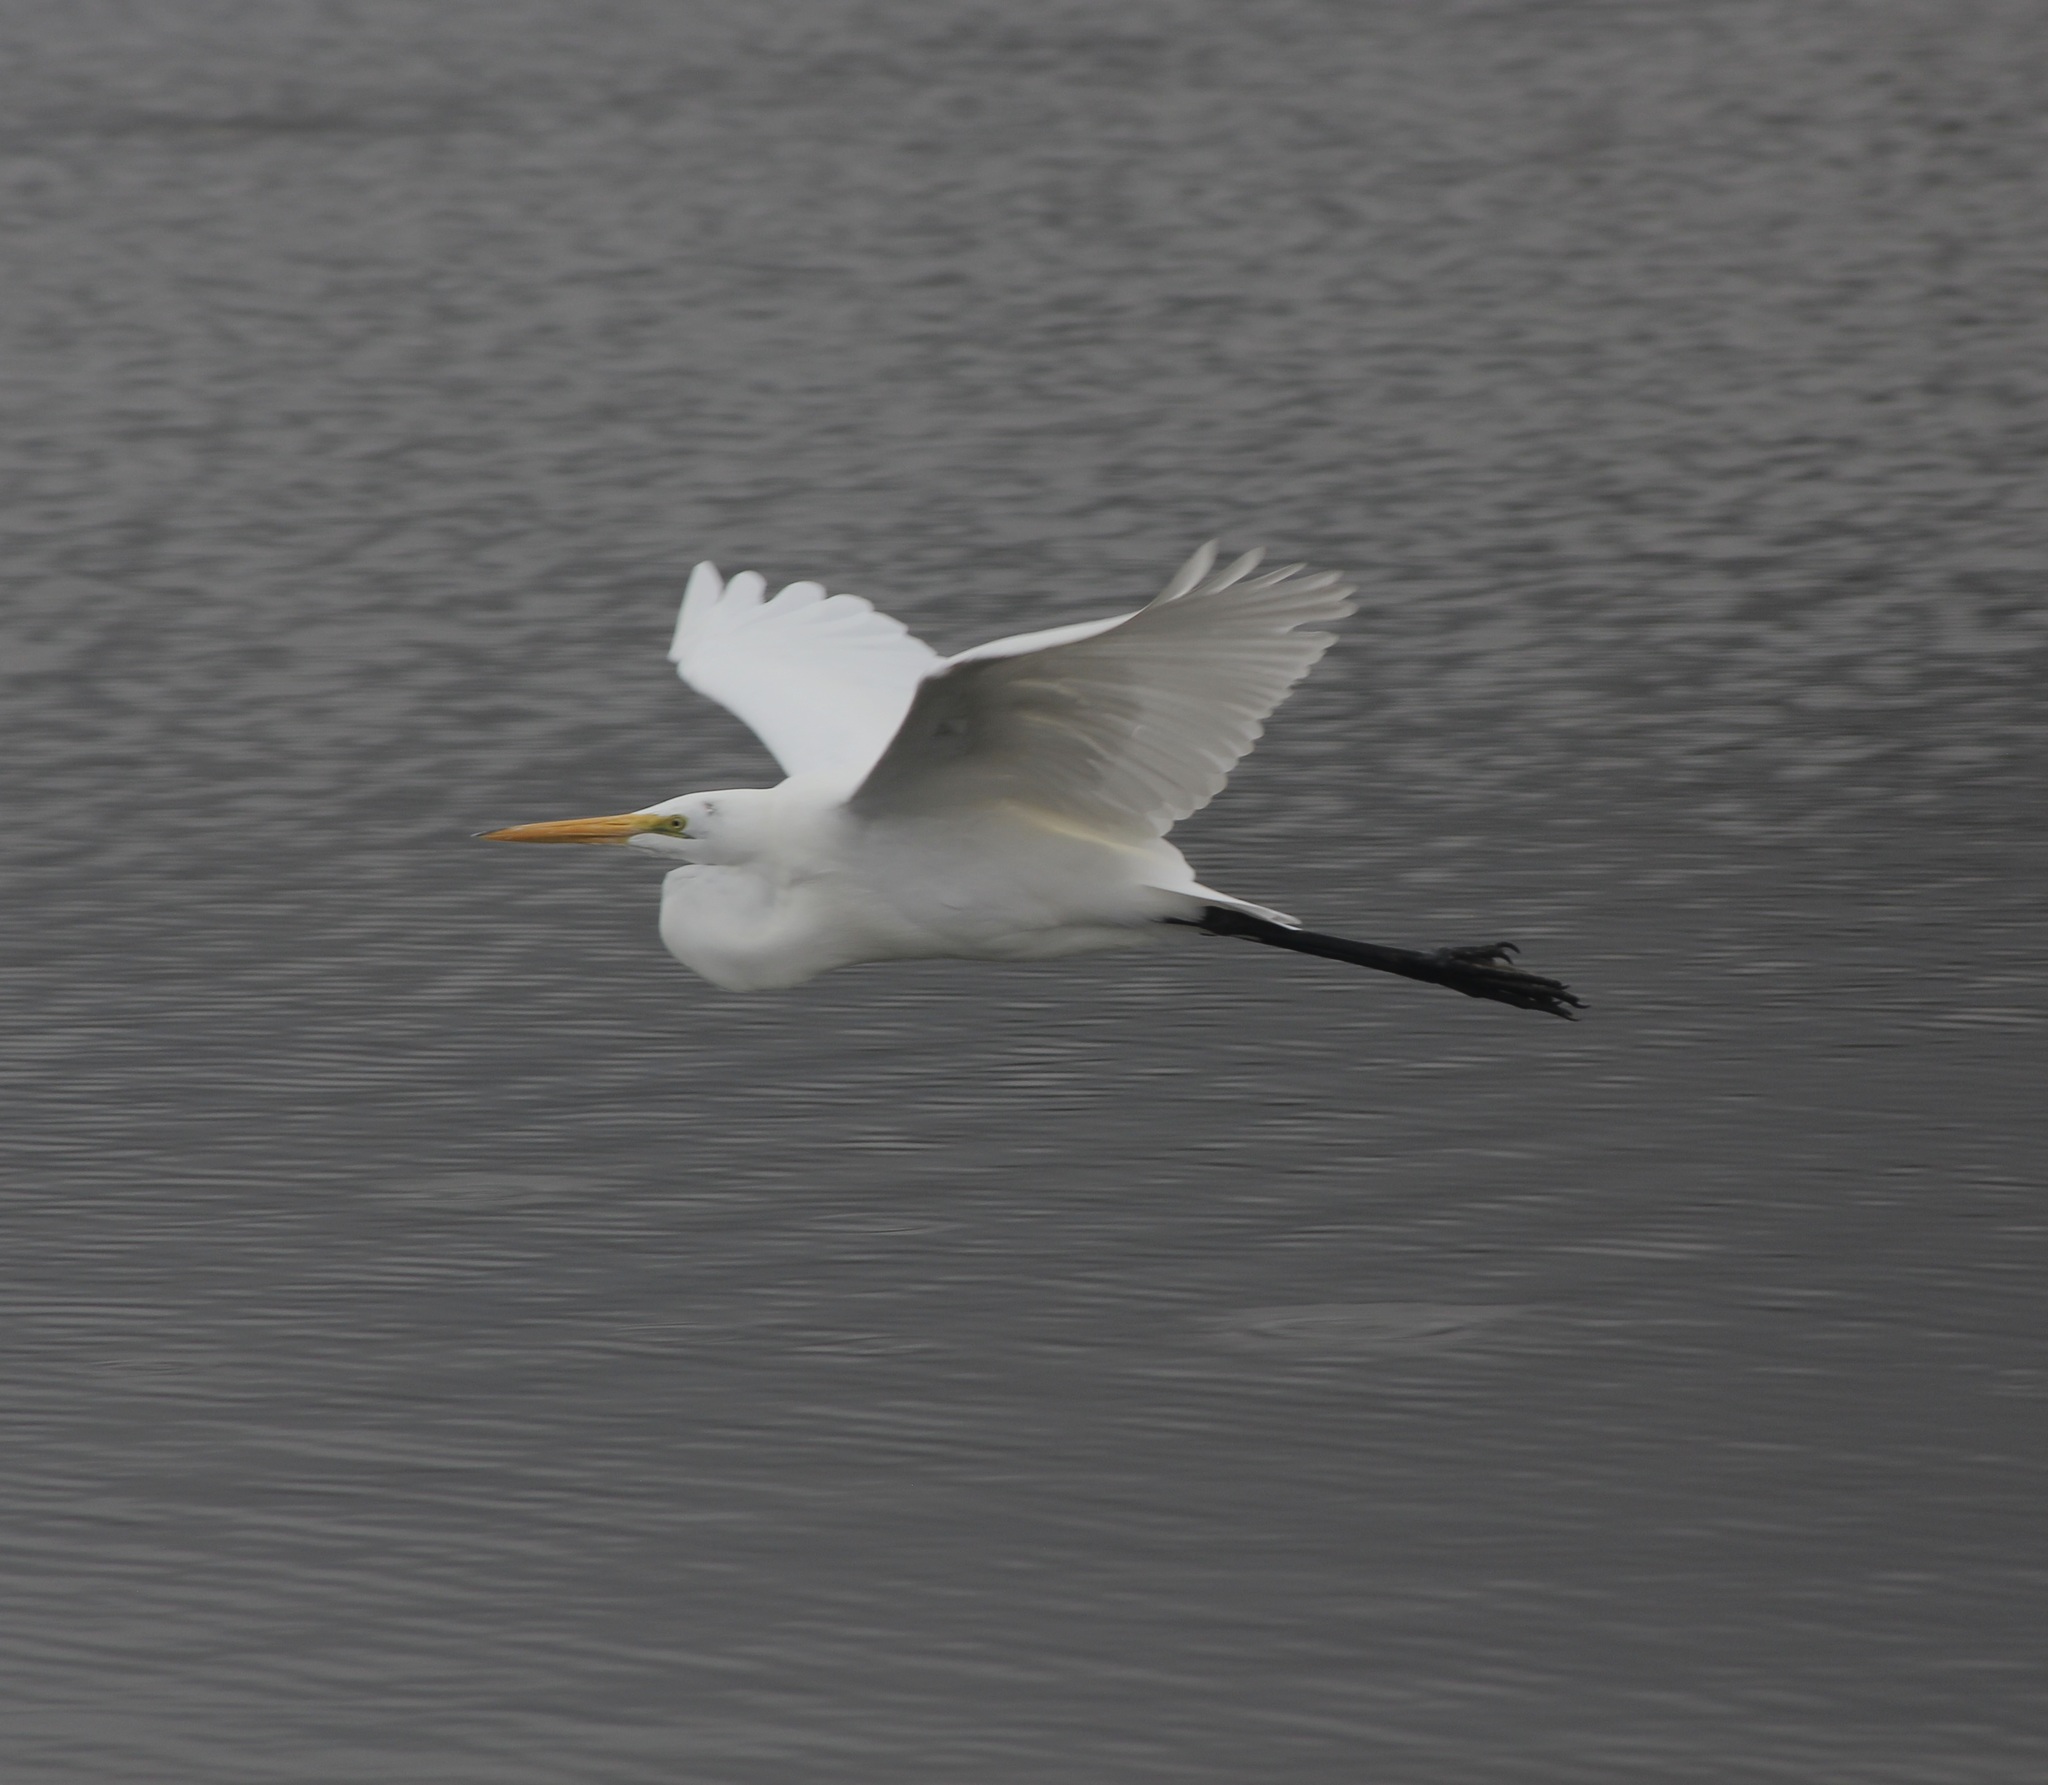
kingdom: Animalia
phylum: Chordata
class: Aves
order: Pelecaniformes
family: Ardeidae
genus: Ardea
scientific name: Ardea alba
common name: Great egret
